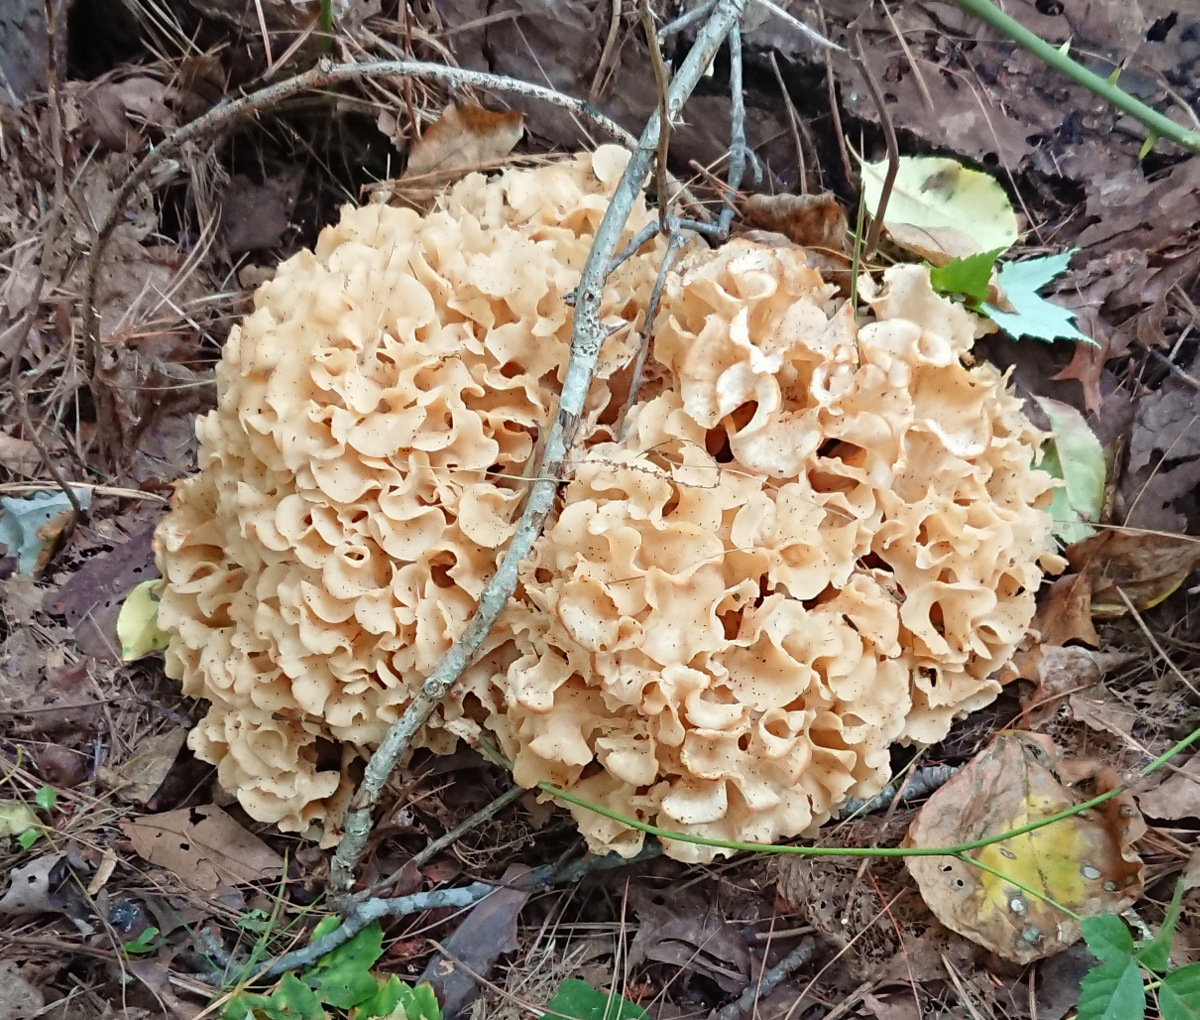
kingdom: Fungi
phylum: Basidiomycota
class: Agaricomycetes
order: Polyporales
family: Sparassidaceae
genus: Sparassis
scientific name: Sparassis americana
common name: American cauliflower mushroom
